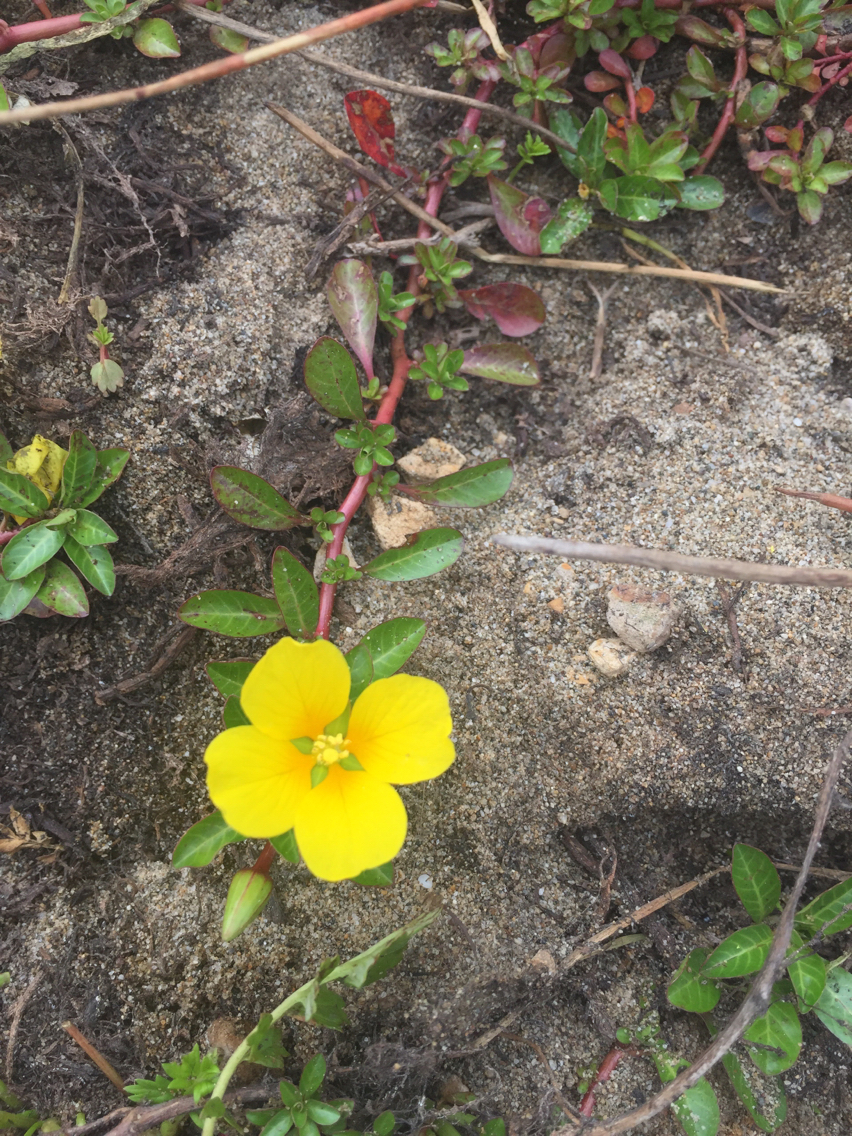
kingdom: Plantae
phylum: Tracheophyta
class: Magnoliopsida
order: Myrtales
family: Onagraceae
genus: Ludwigia
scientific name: Ludwigia peploides
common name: Floating primrose-willow
